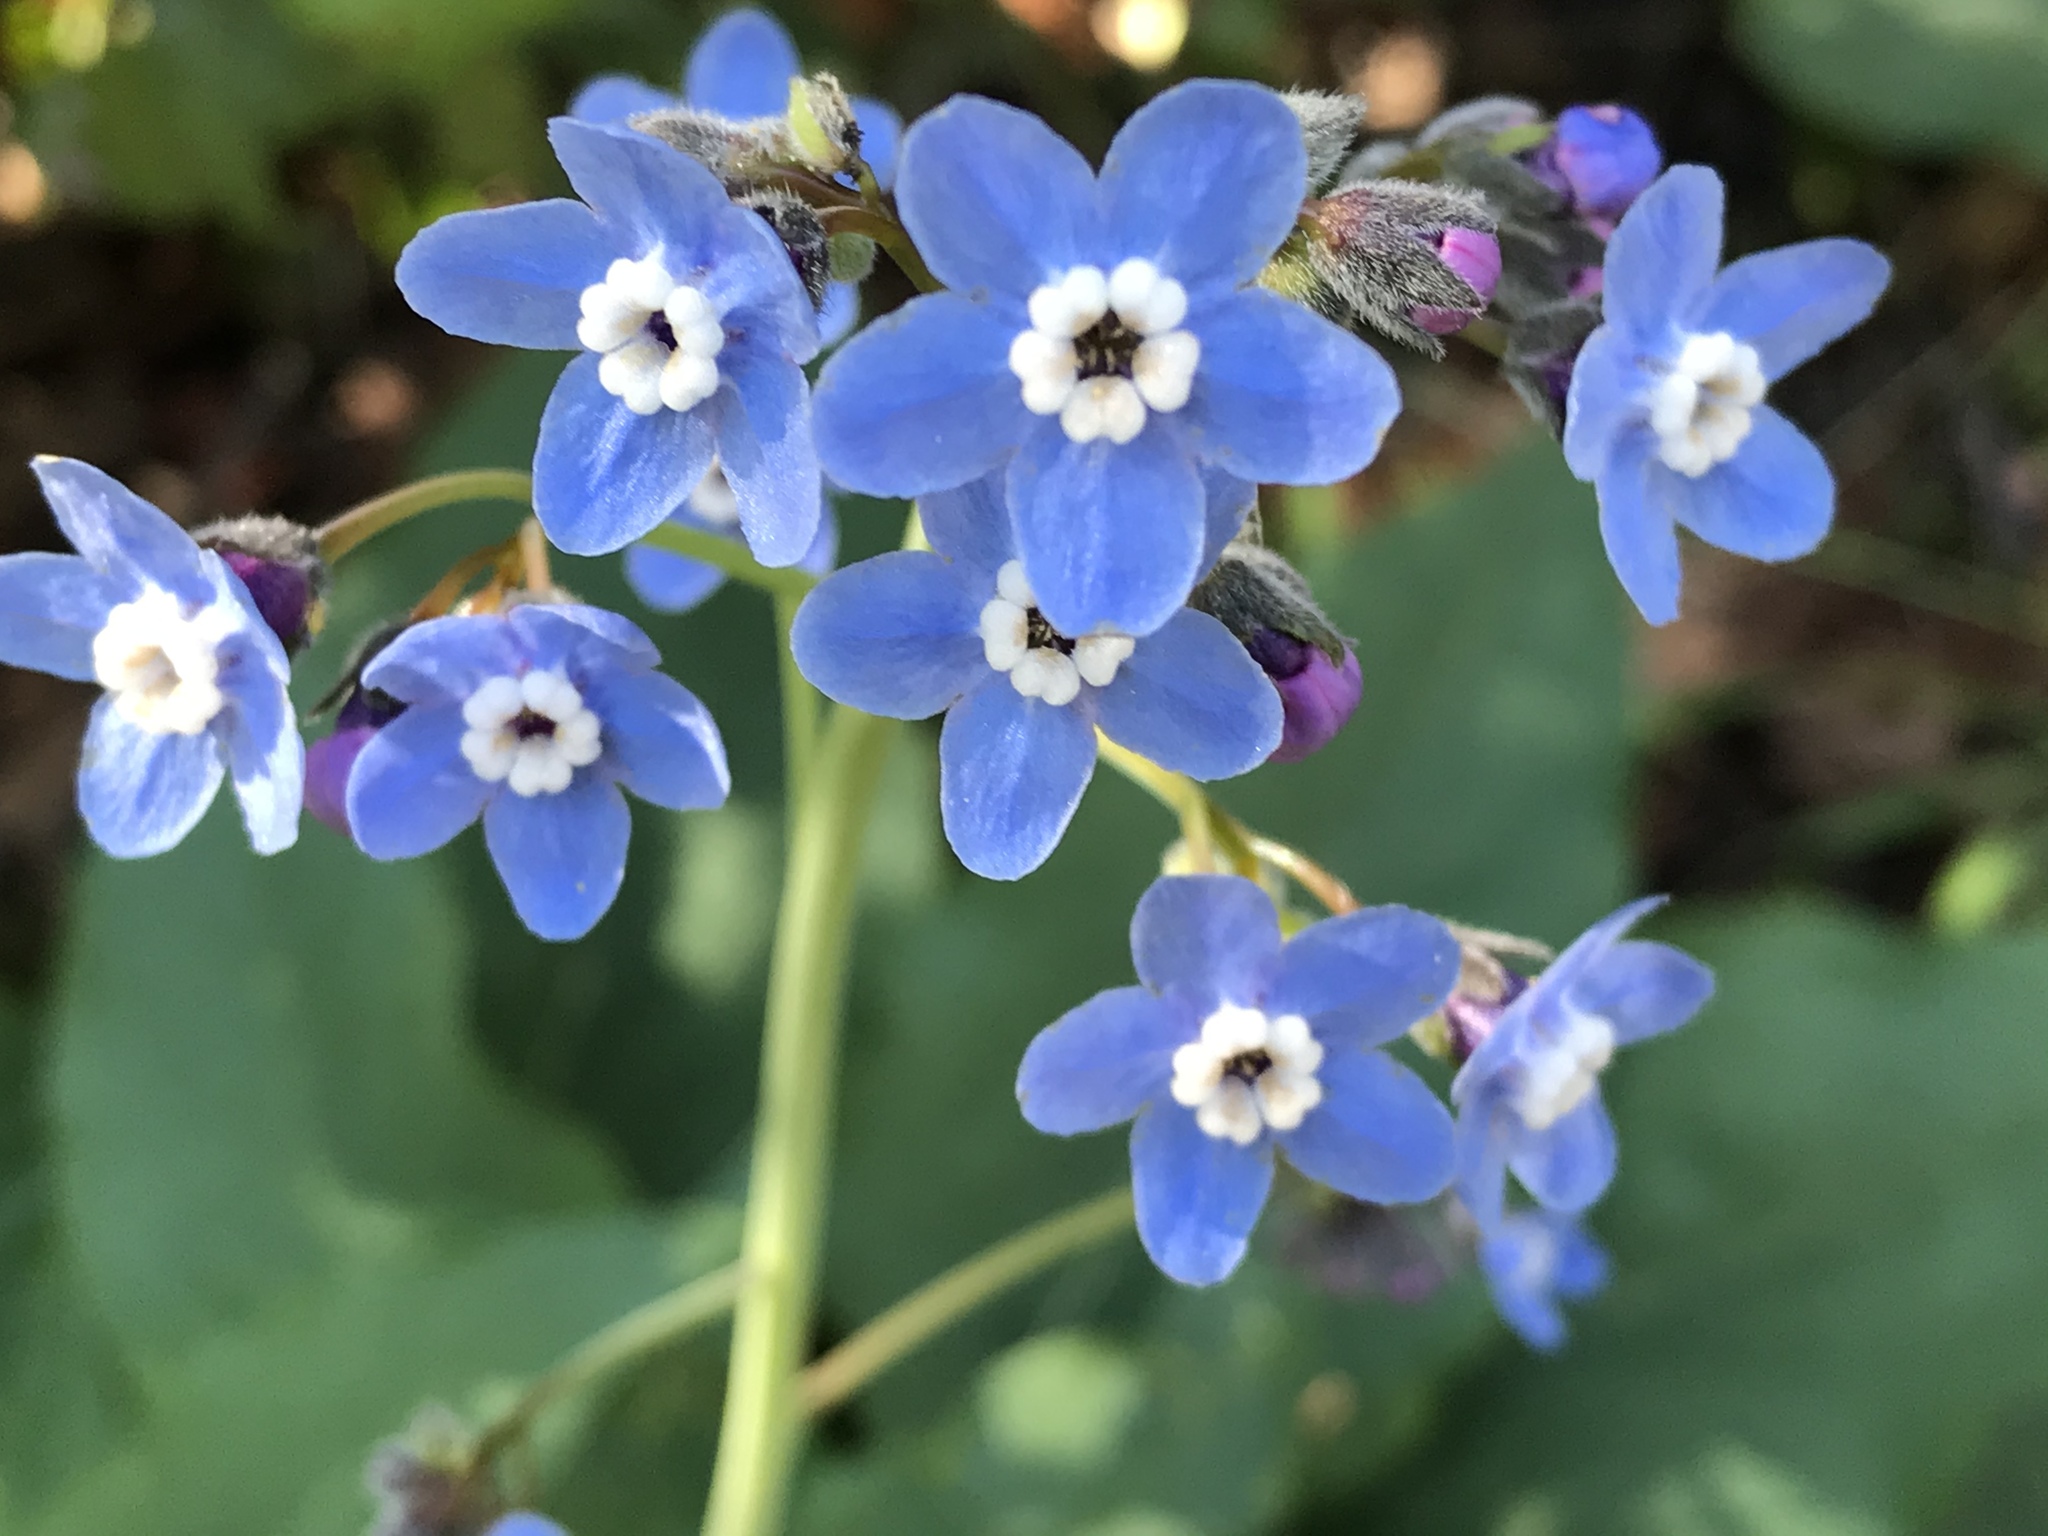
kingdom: Plantae
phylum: Tracheophyta
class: Magnoliopsida
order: Boraginales
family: Boraginaceae
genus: Adelinia
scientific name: Adelinia grande
